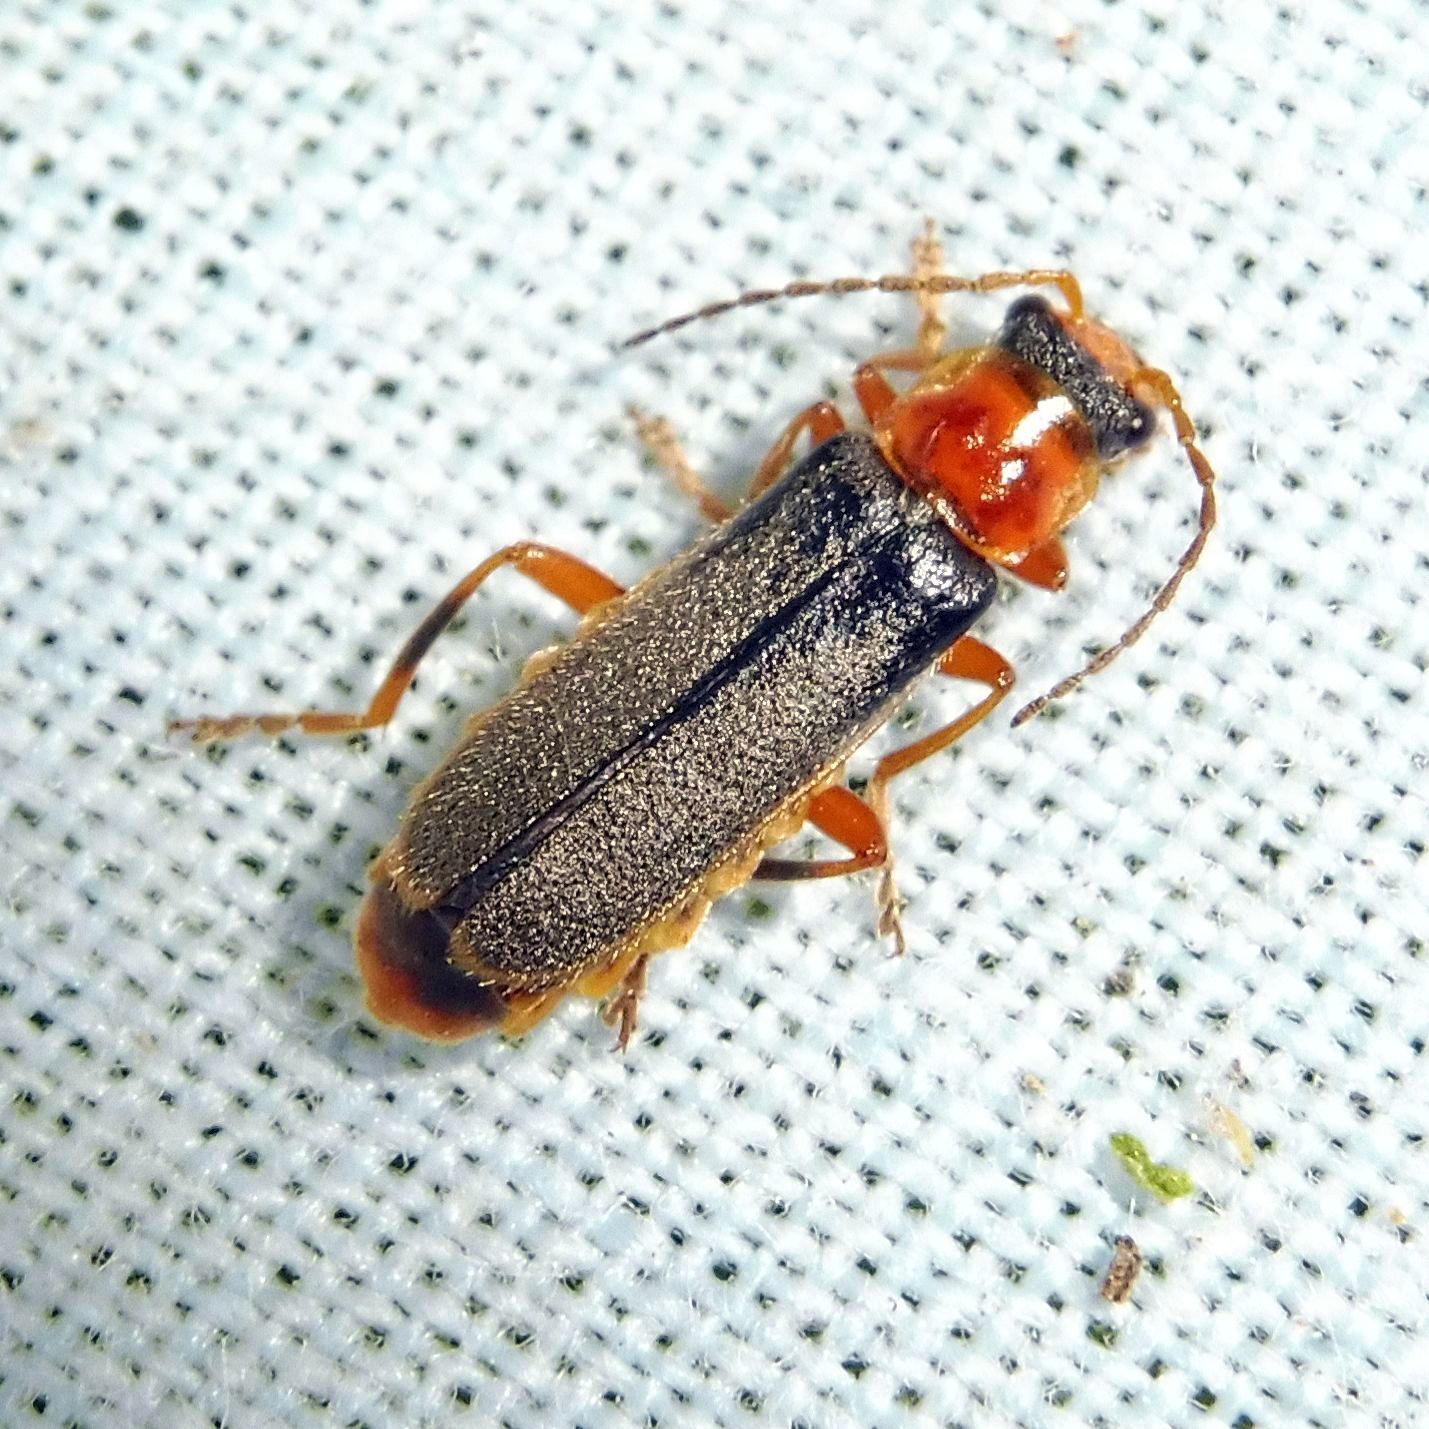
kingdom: Animalia
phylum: Arthropoda
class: Insecta
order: Coleoptera
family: Cantharidae
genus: Cantharis
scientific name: Cantharis lateralis
